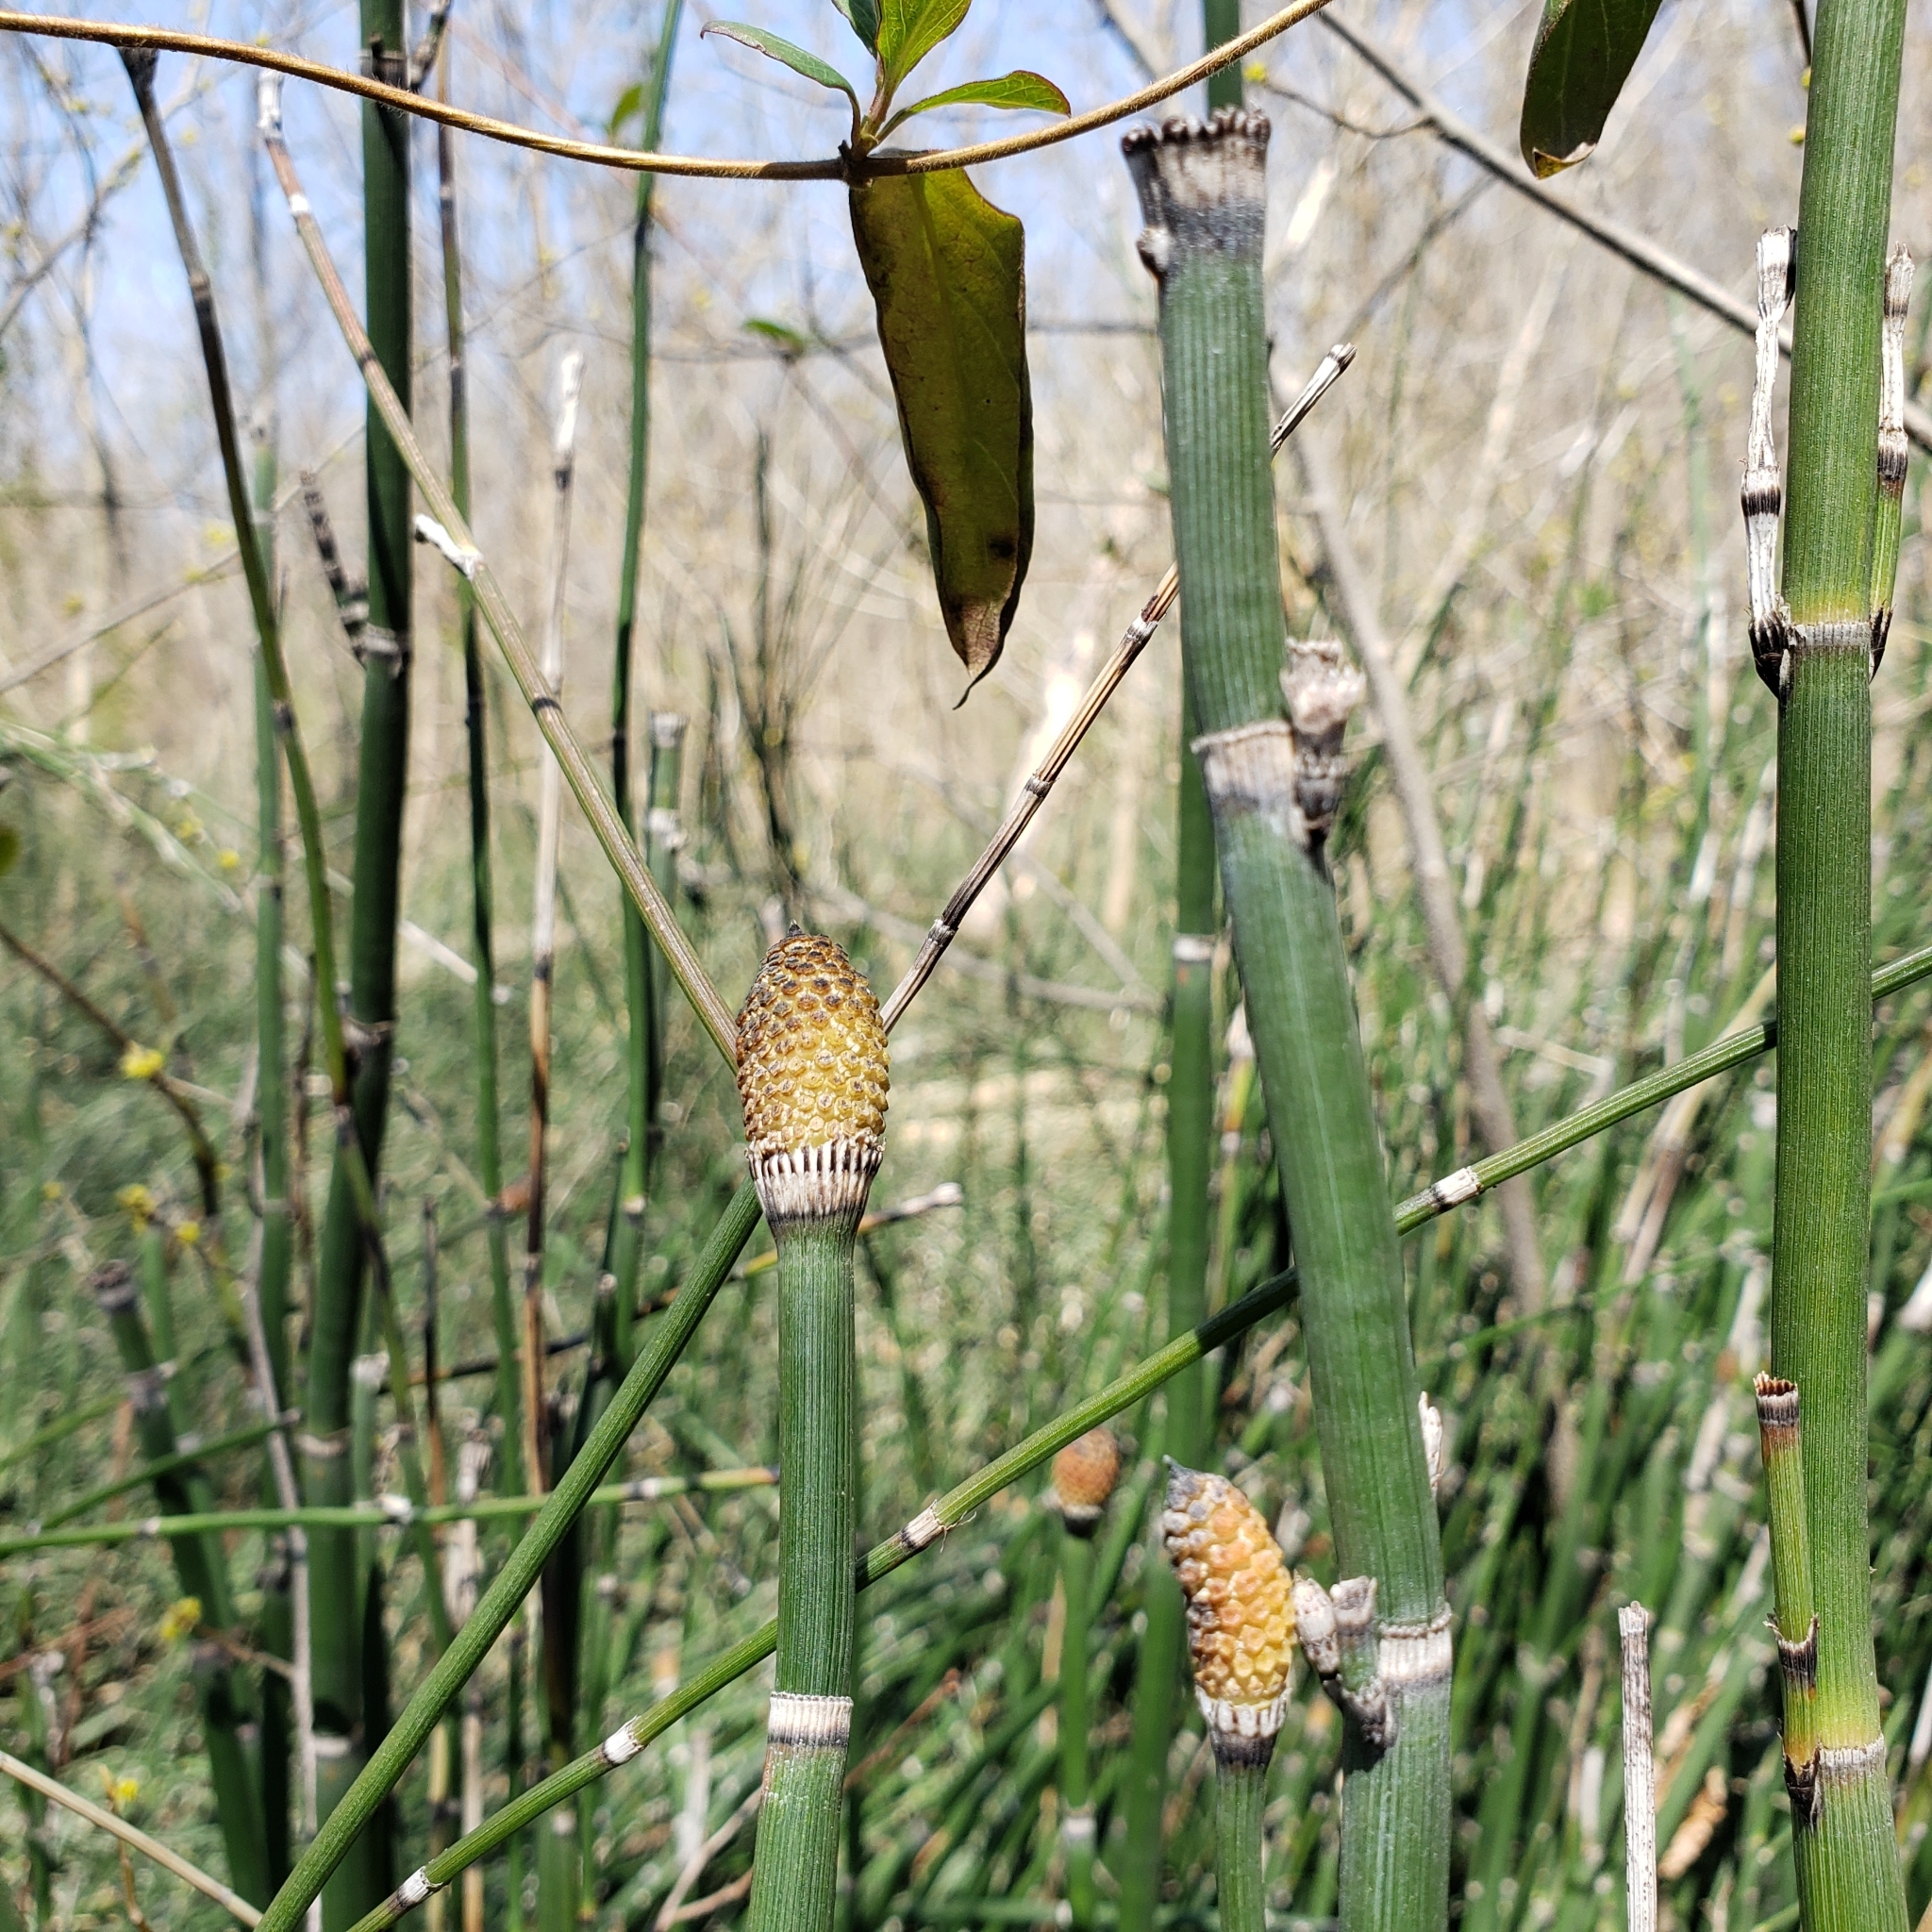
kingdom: Plantae
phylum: Tracheophyta
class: Polypodiopsida
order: Equisetales
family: Equisetaceae
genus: Equisetum
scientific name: Equisetum praealtum
